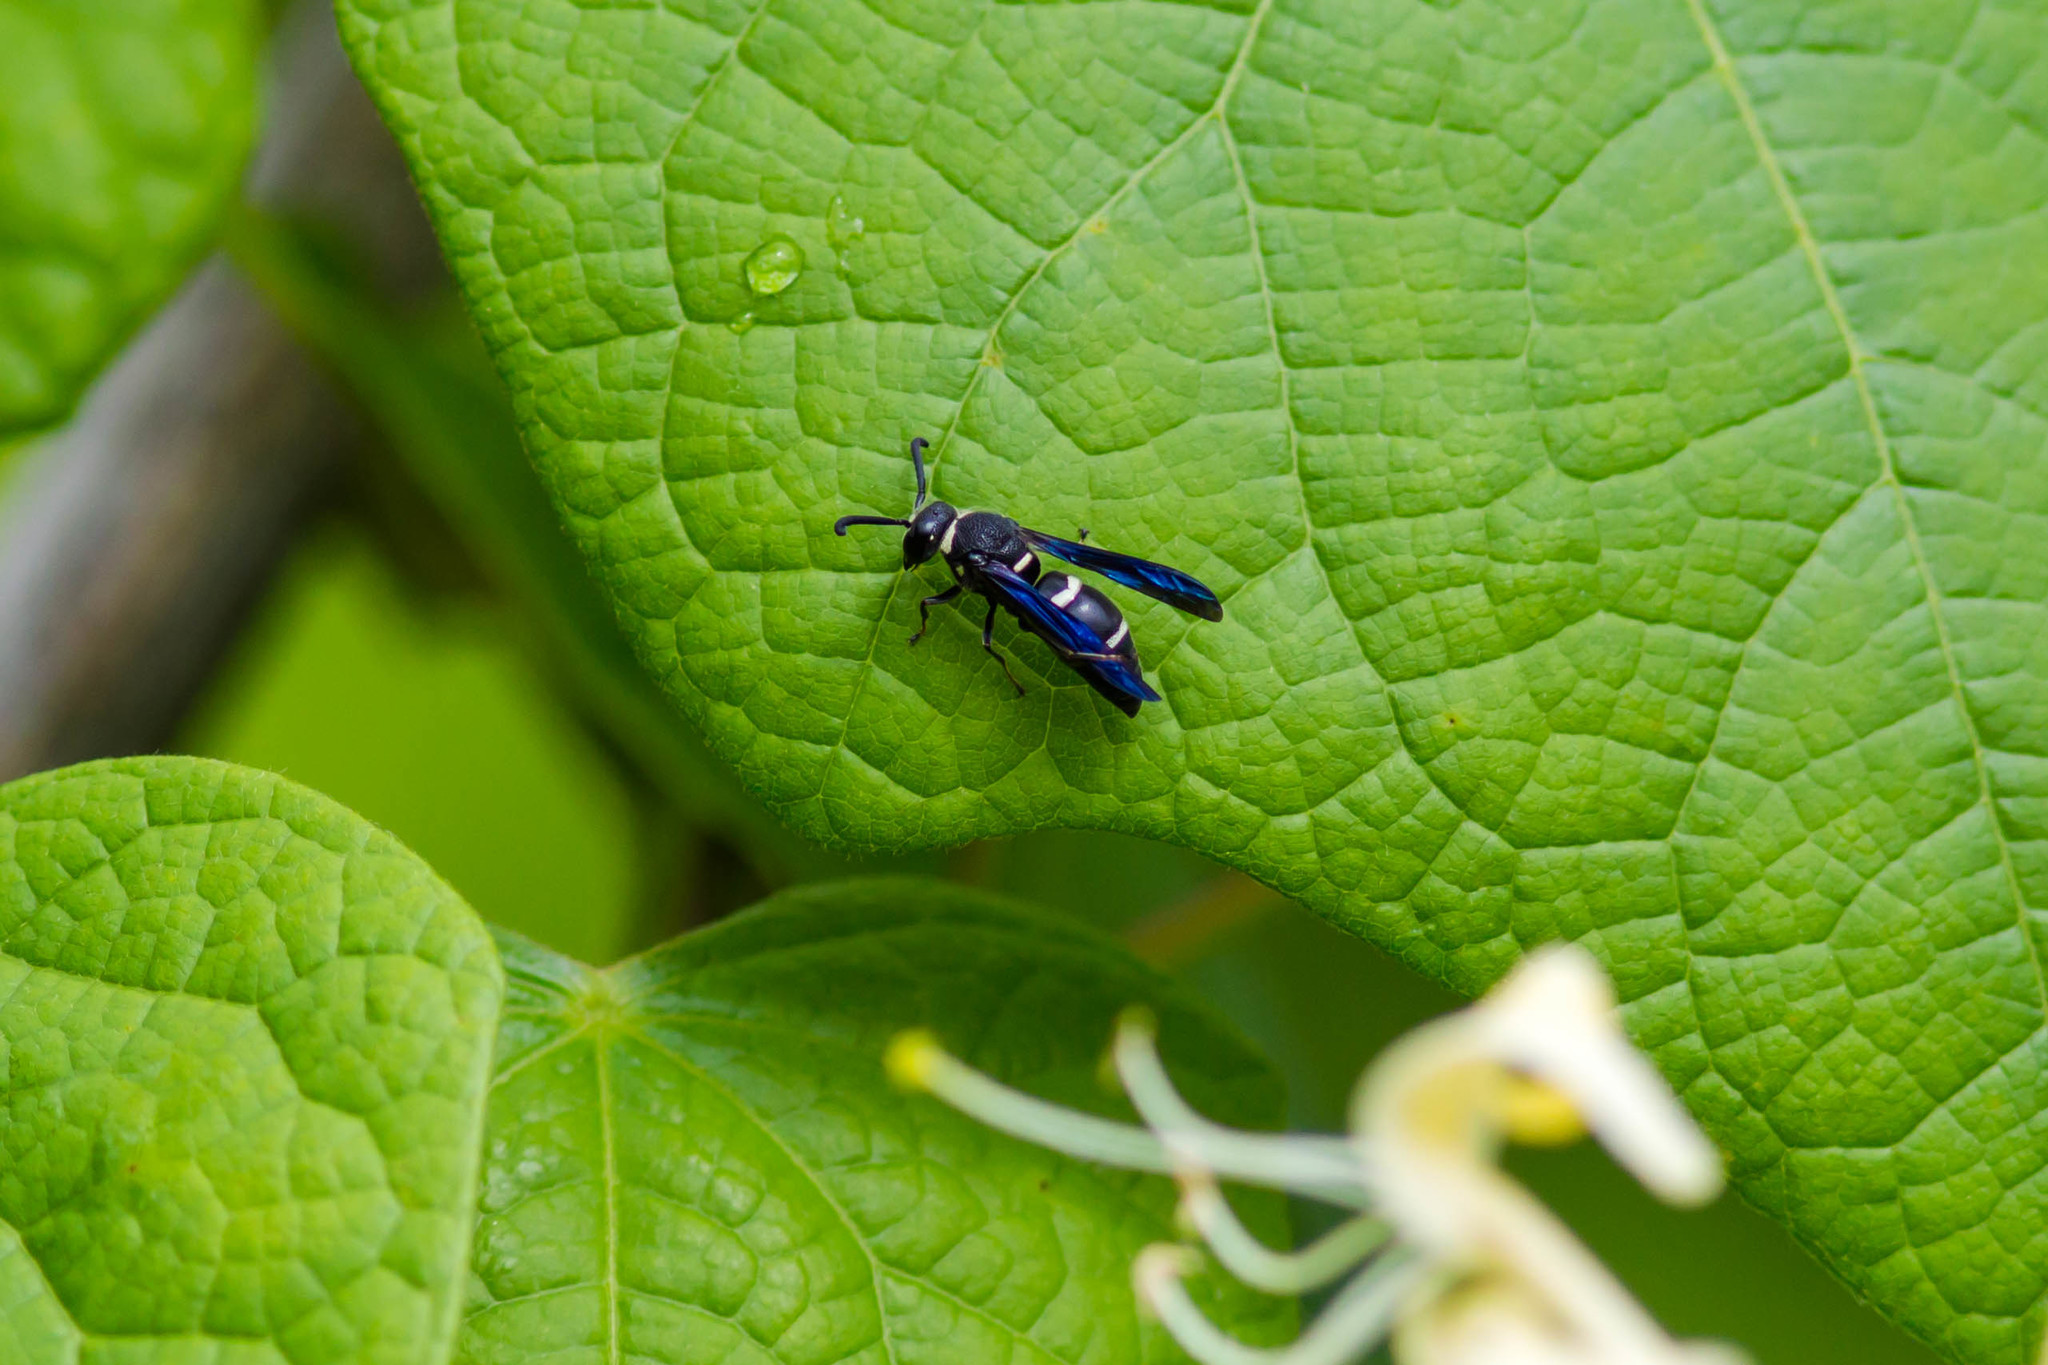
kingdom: Animalia
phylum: Arthropoda
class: Insecta
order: Hymenoptera
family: Eumenidae
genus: Euodynerus
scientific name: Euodynerus megaera
